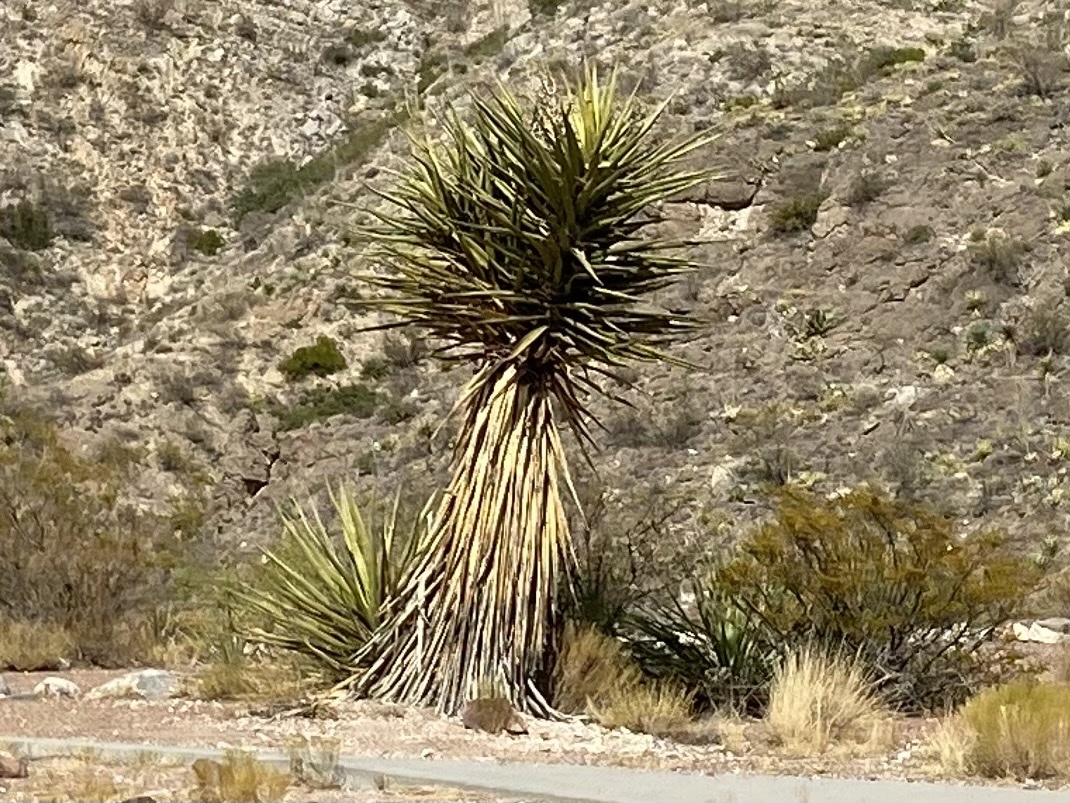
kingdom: Plantae
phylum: Tracheophyta
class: Liliopsida
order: Asparagales
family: Asparagaceae
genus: Yucca
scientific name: Yucca treculiana
